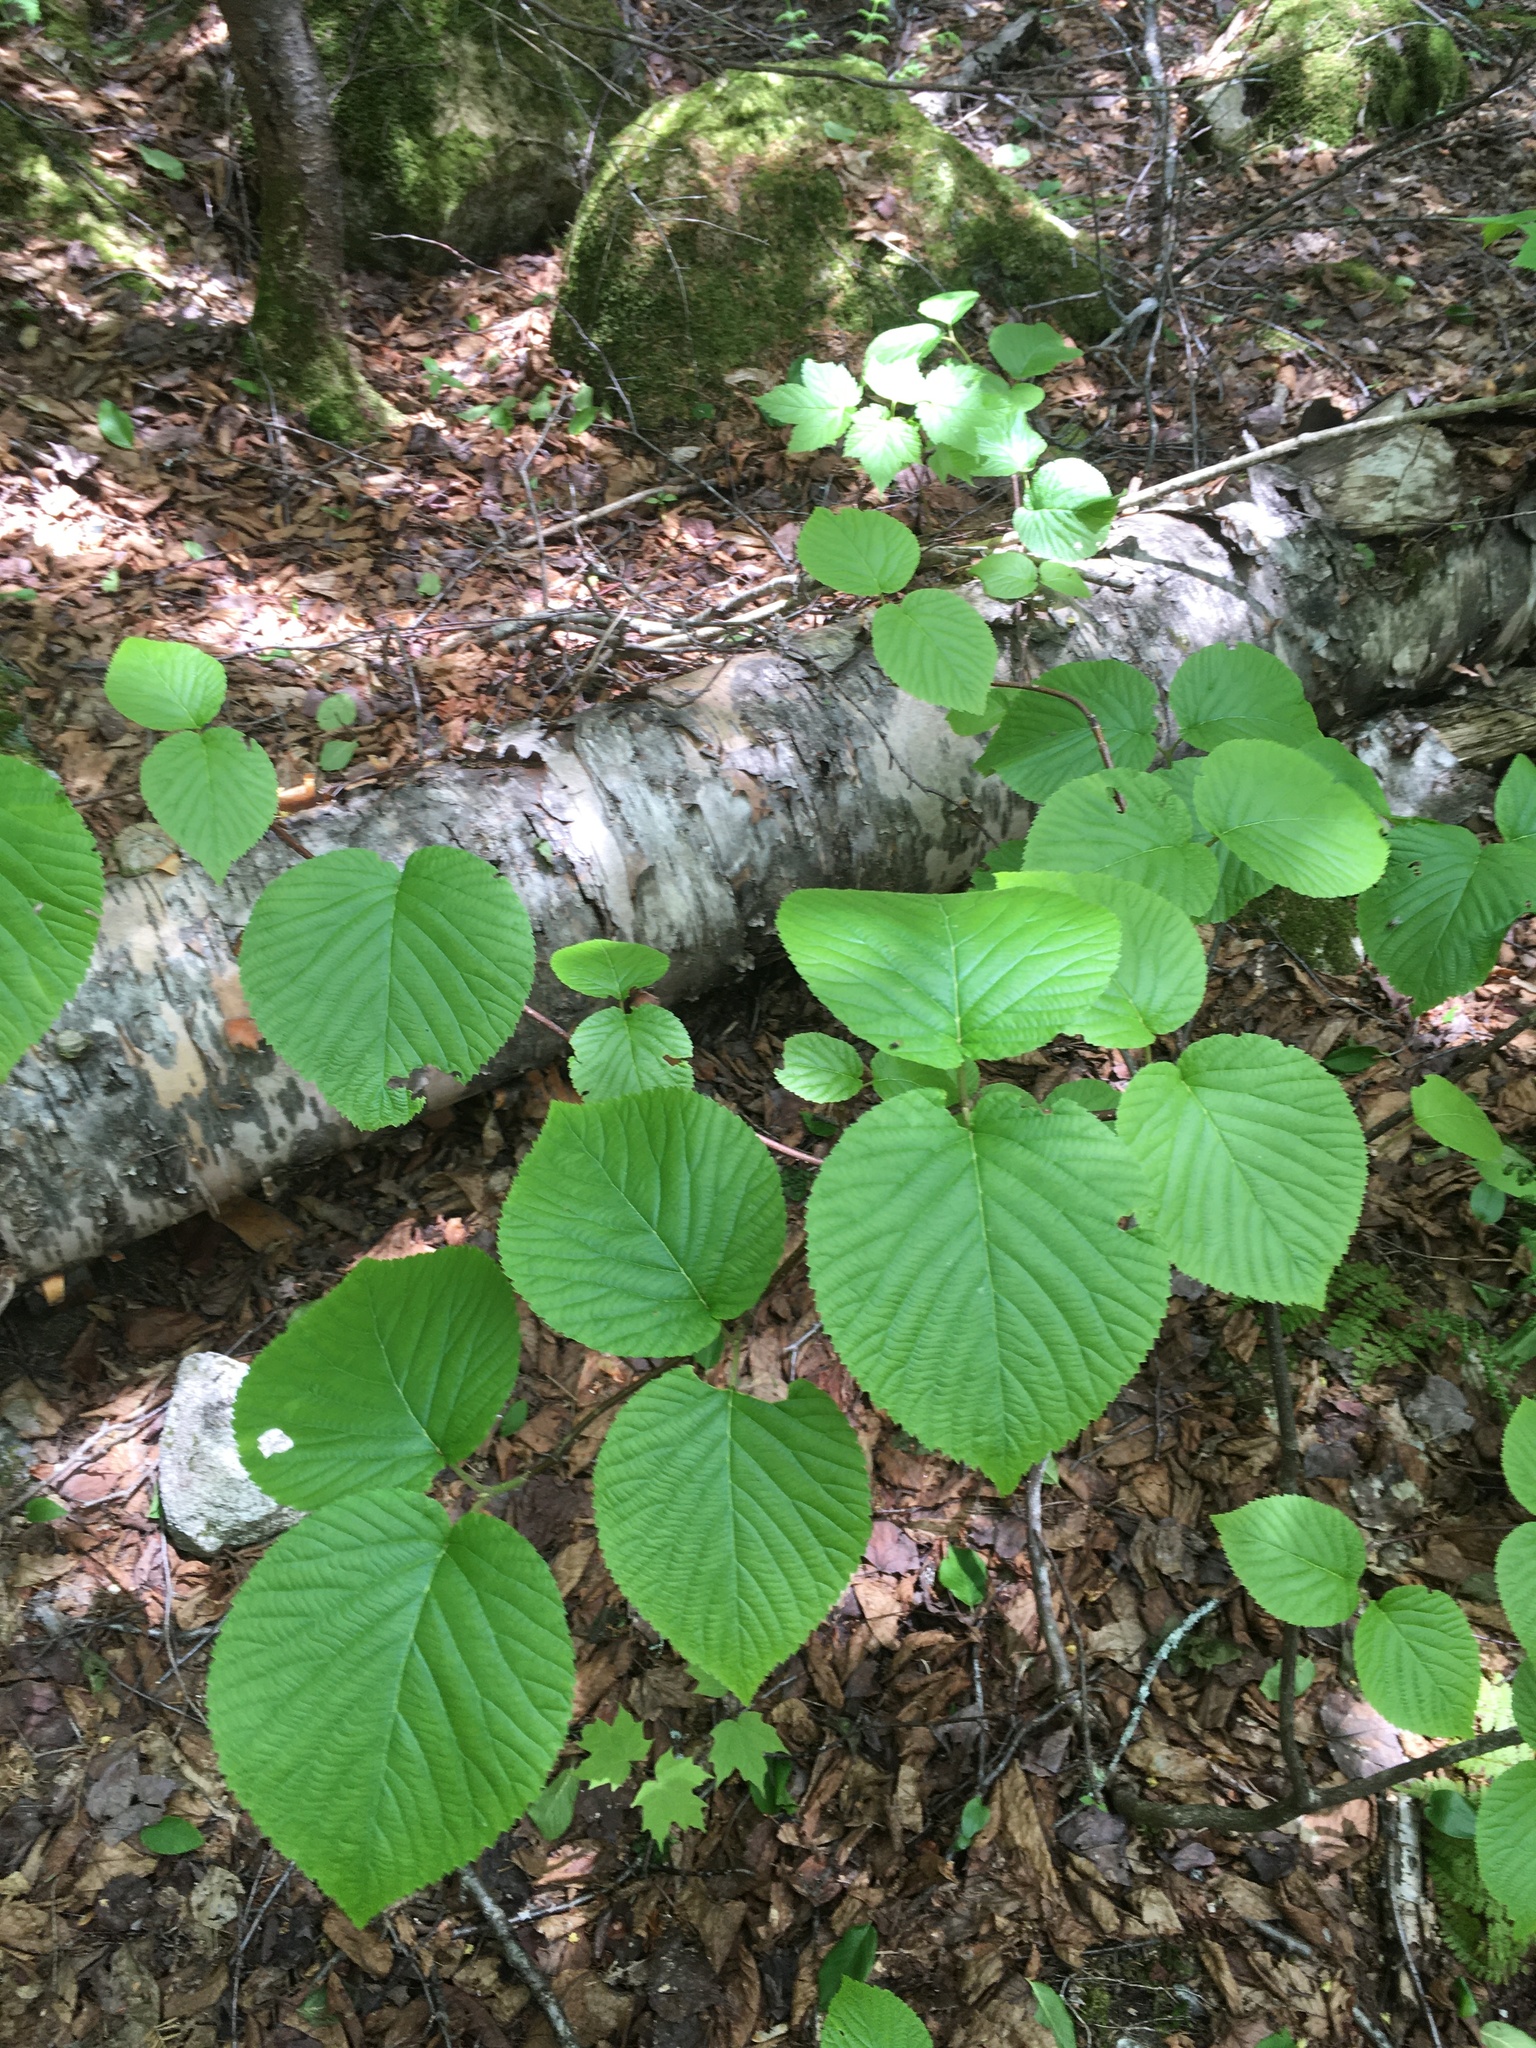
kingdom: Plantae
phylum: Tracheophyta
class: Magnoliopsida
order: Dipsacales
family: Viburnaceae
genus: Viburnum
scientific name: Viburnum lantanoides
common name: Hobblebush
